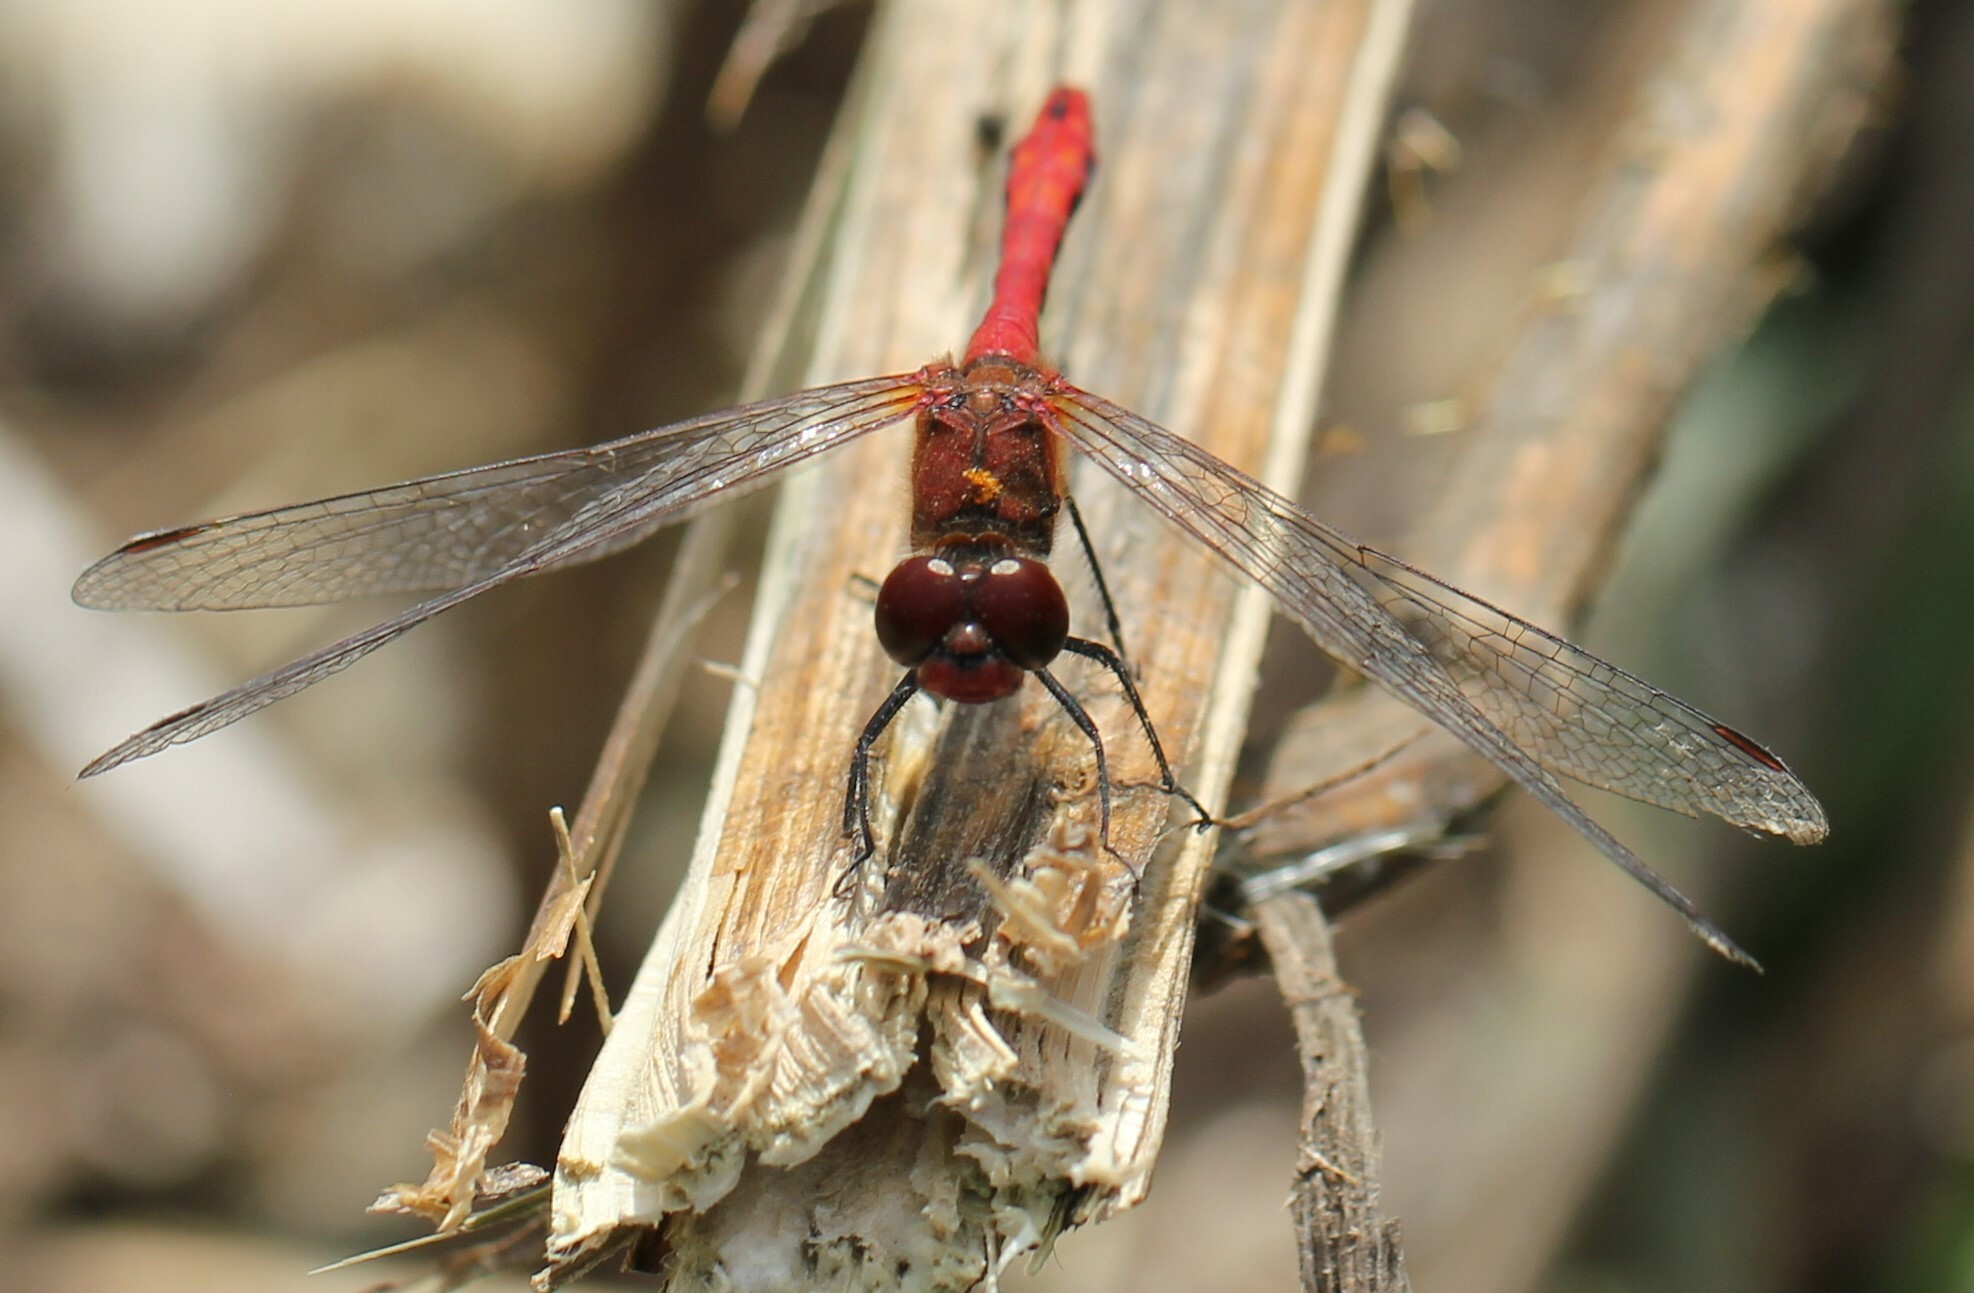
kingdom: Animalia
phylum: Arthropoda
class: Insecta
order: Odonata
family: Libellulidae
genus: Sympetrum
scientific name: Sympetrum sanguineum
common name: Ruddy darter
